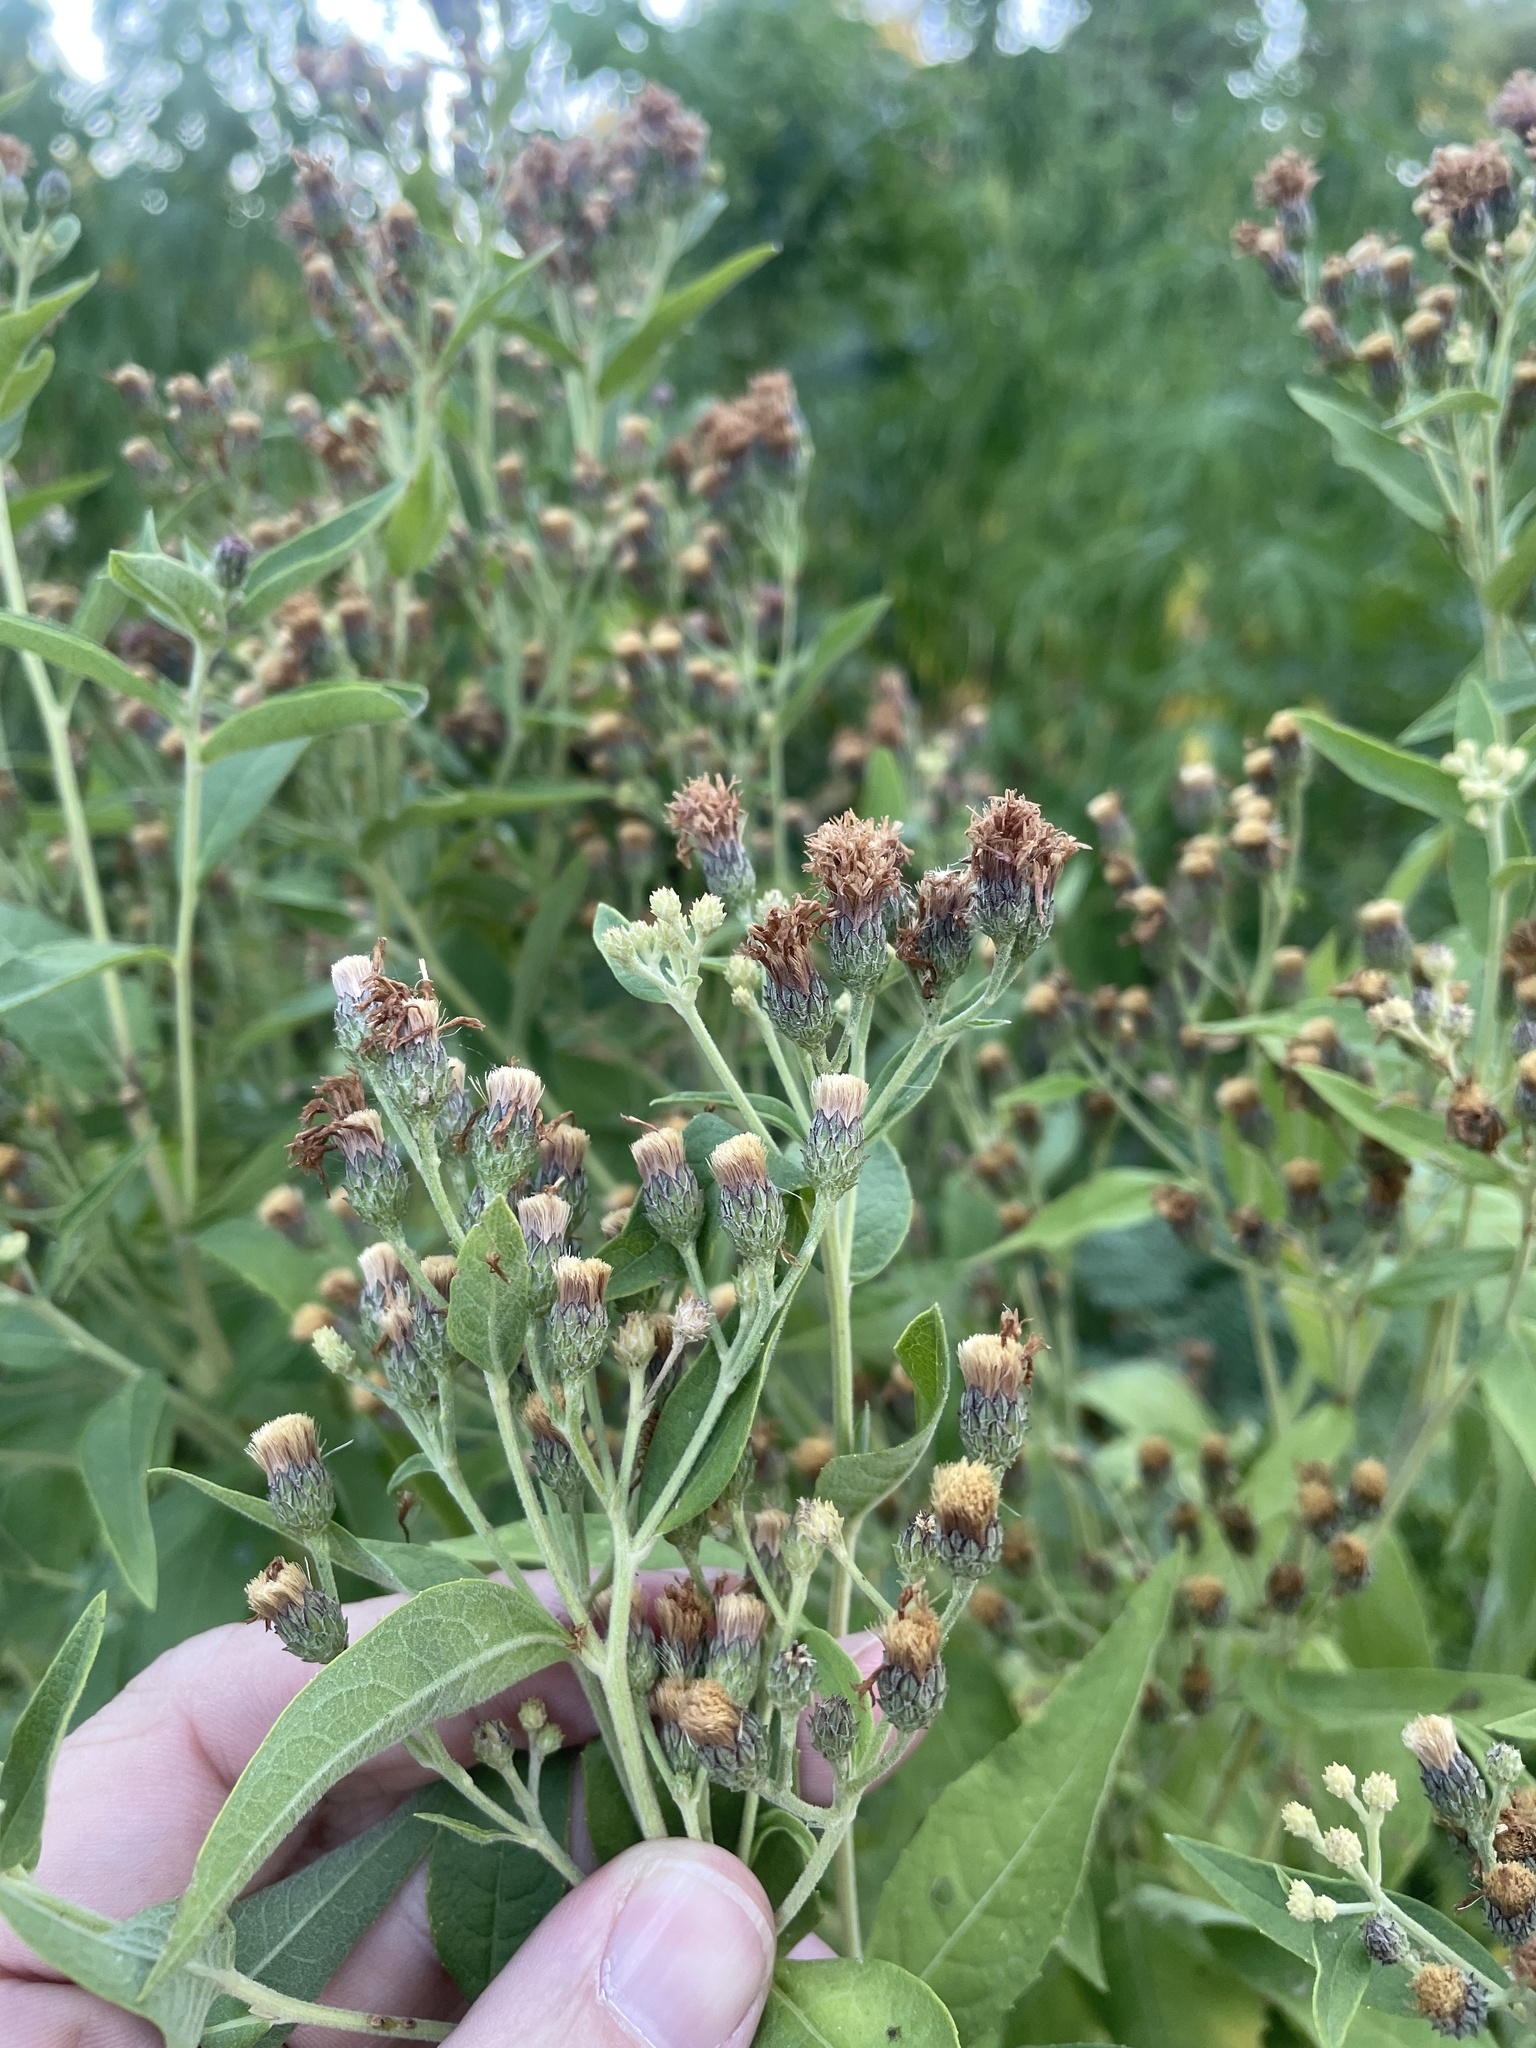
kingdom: Plantae
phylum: Tracheophyta
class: Magnoliopsida
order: Asterales
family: Asteraceae
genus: Vernonia
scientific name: Vernonia baldwinii
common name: Western ironweed
